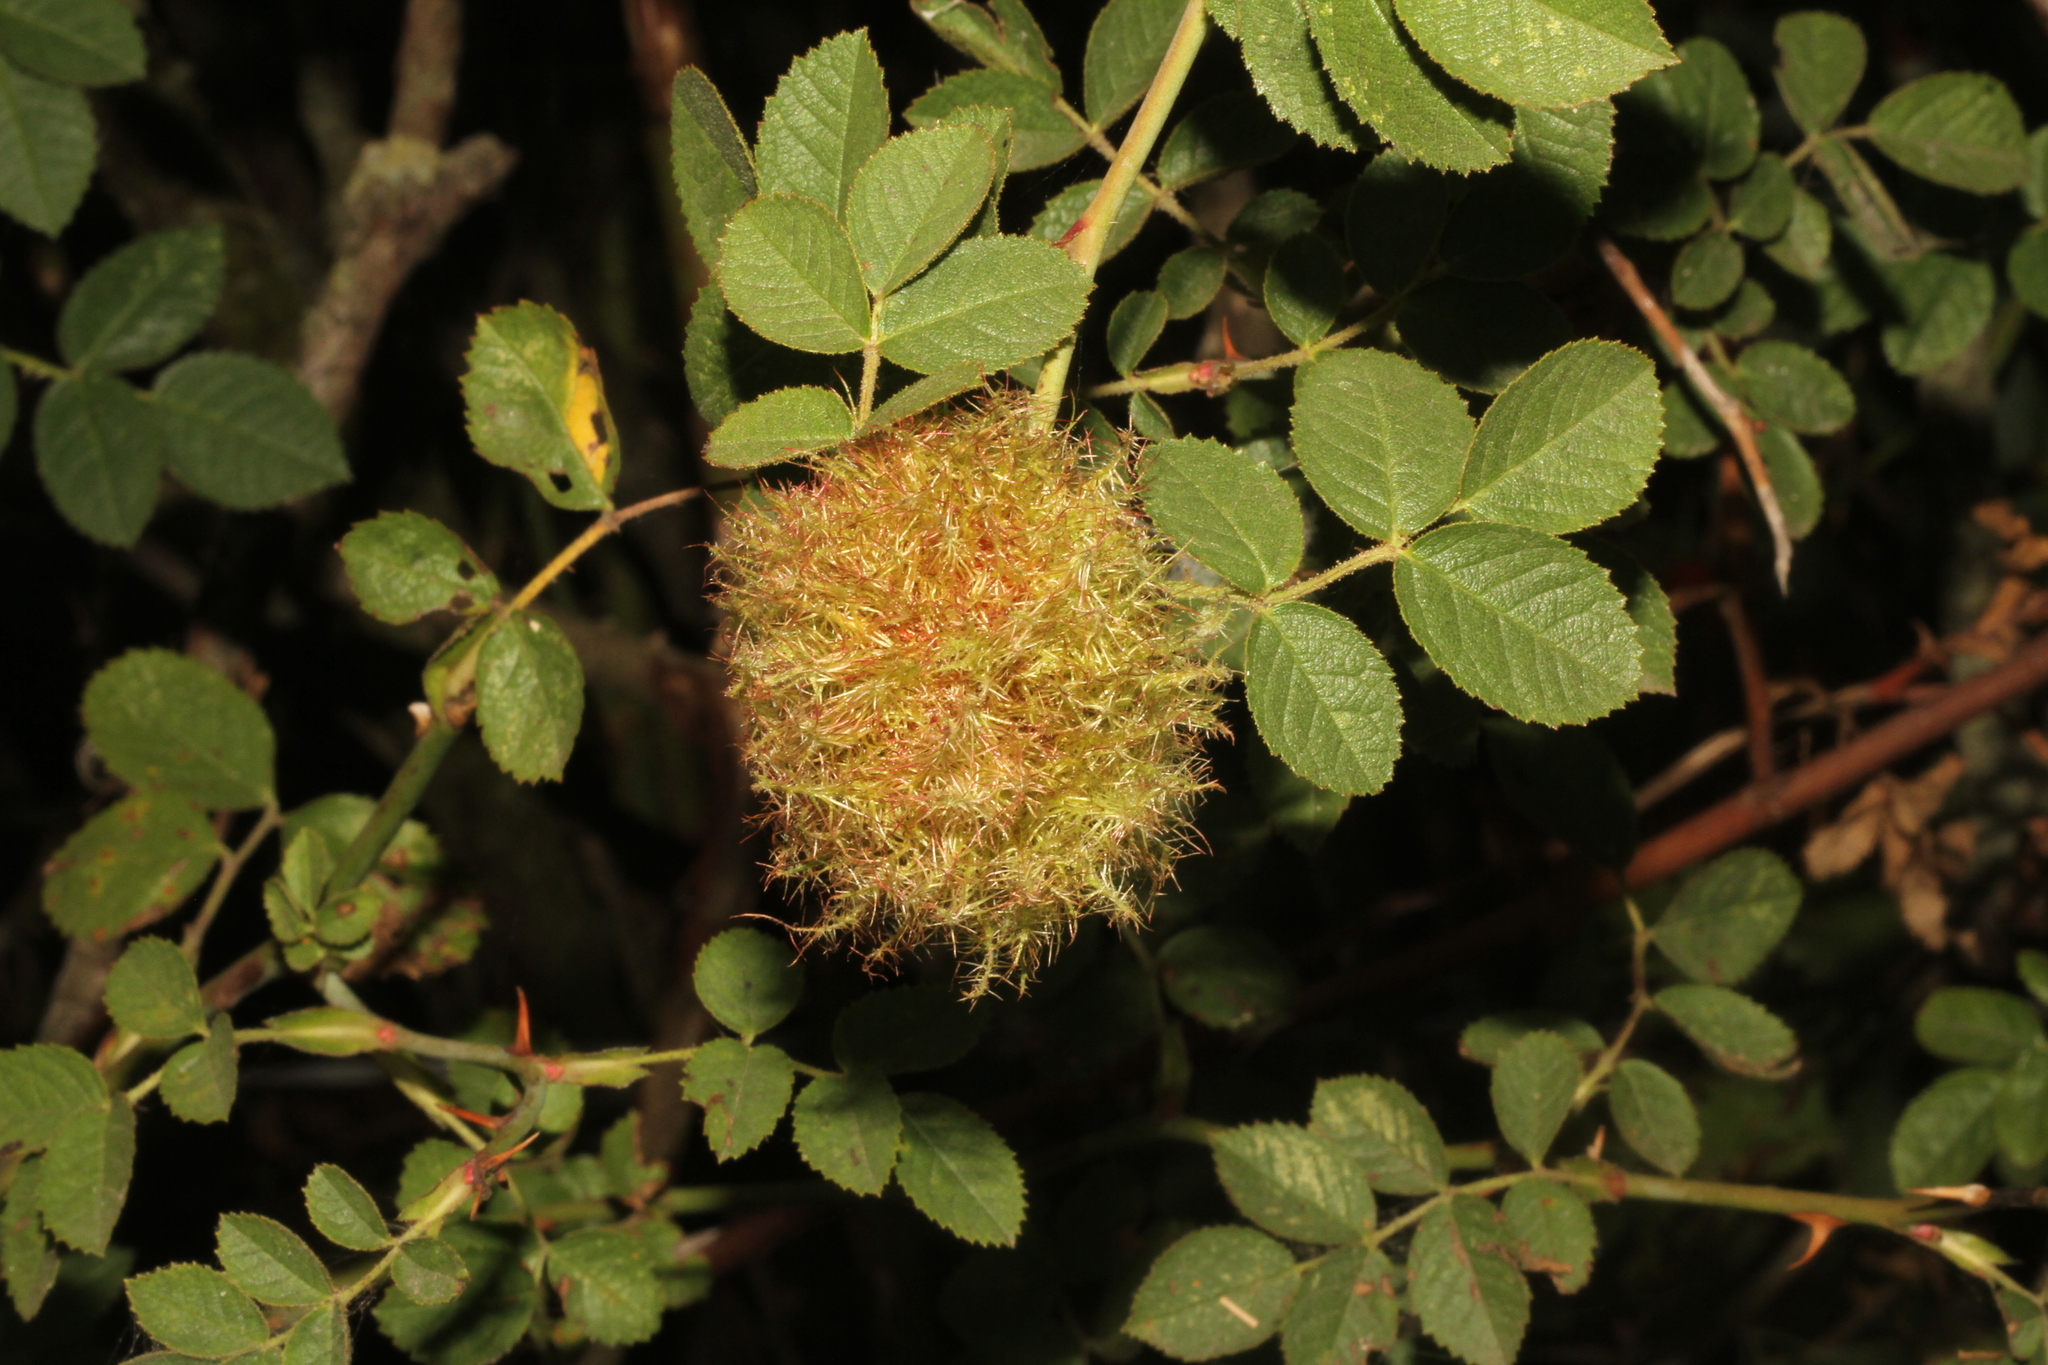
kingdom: Animalia
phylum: Arthropoda
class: Insecta
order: Hymenoptera
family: Cynipidae
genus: Diplolepis
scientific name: Diplolepis rosae
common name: Bedeguar gall
